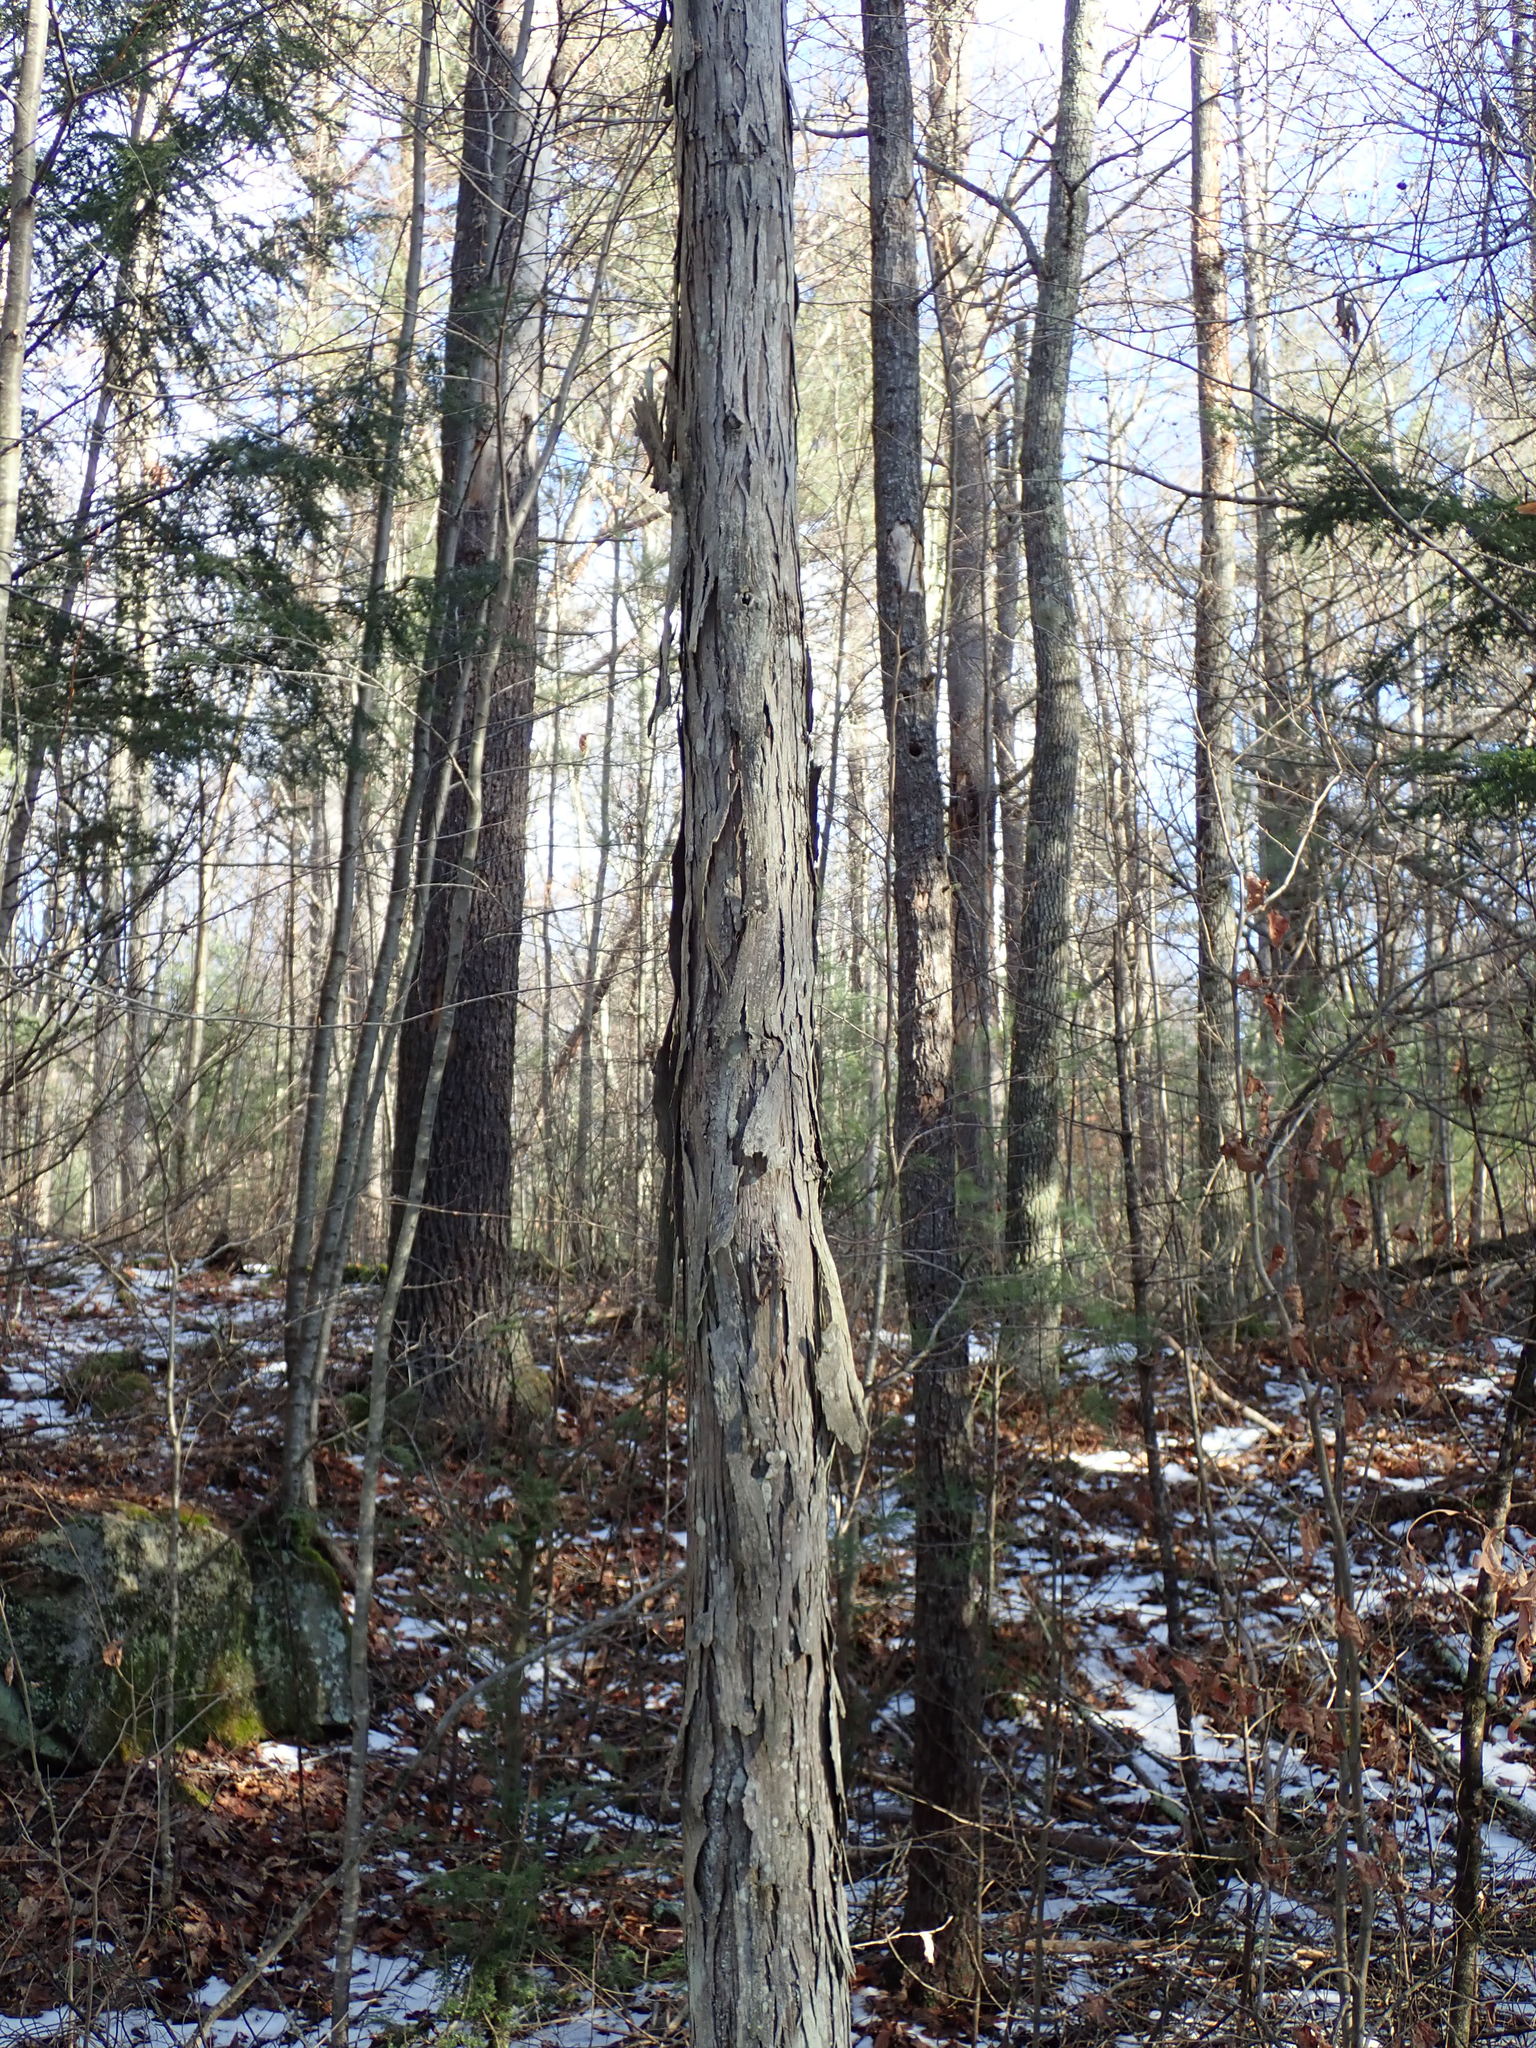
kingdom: Plantae
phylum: Tracheophyta
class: Magnoliopsida
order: Fagales
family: Juglandaceae
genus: Carya
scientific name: Carya ovata
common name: Shagbark hickory
